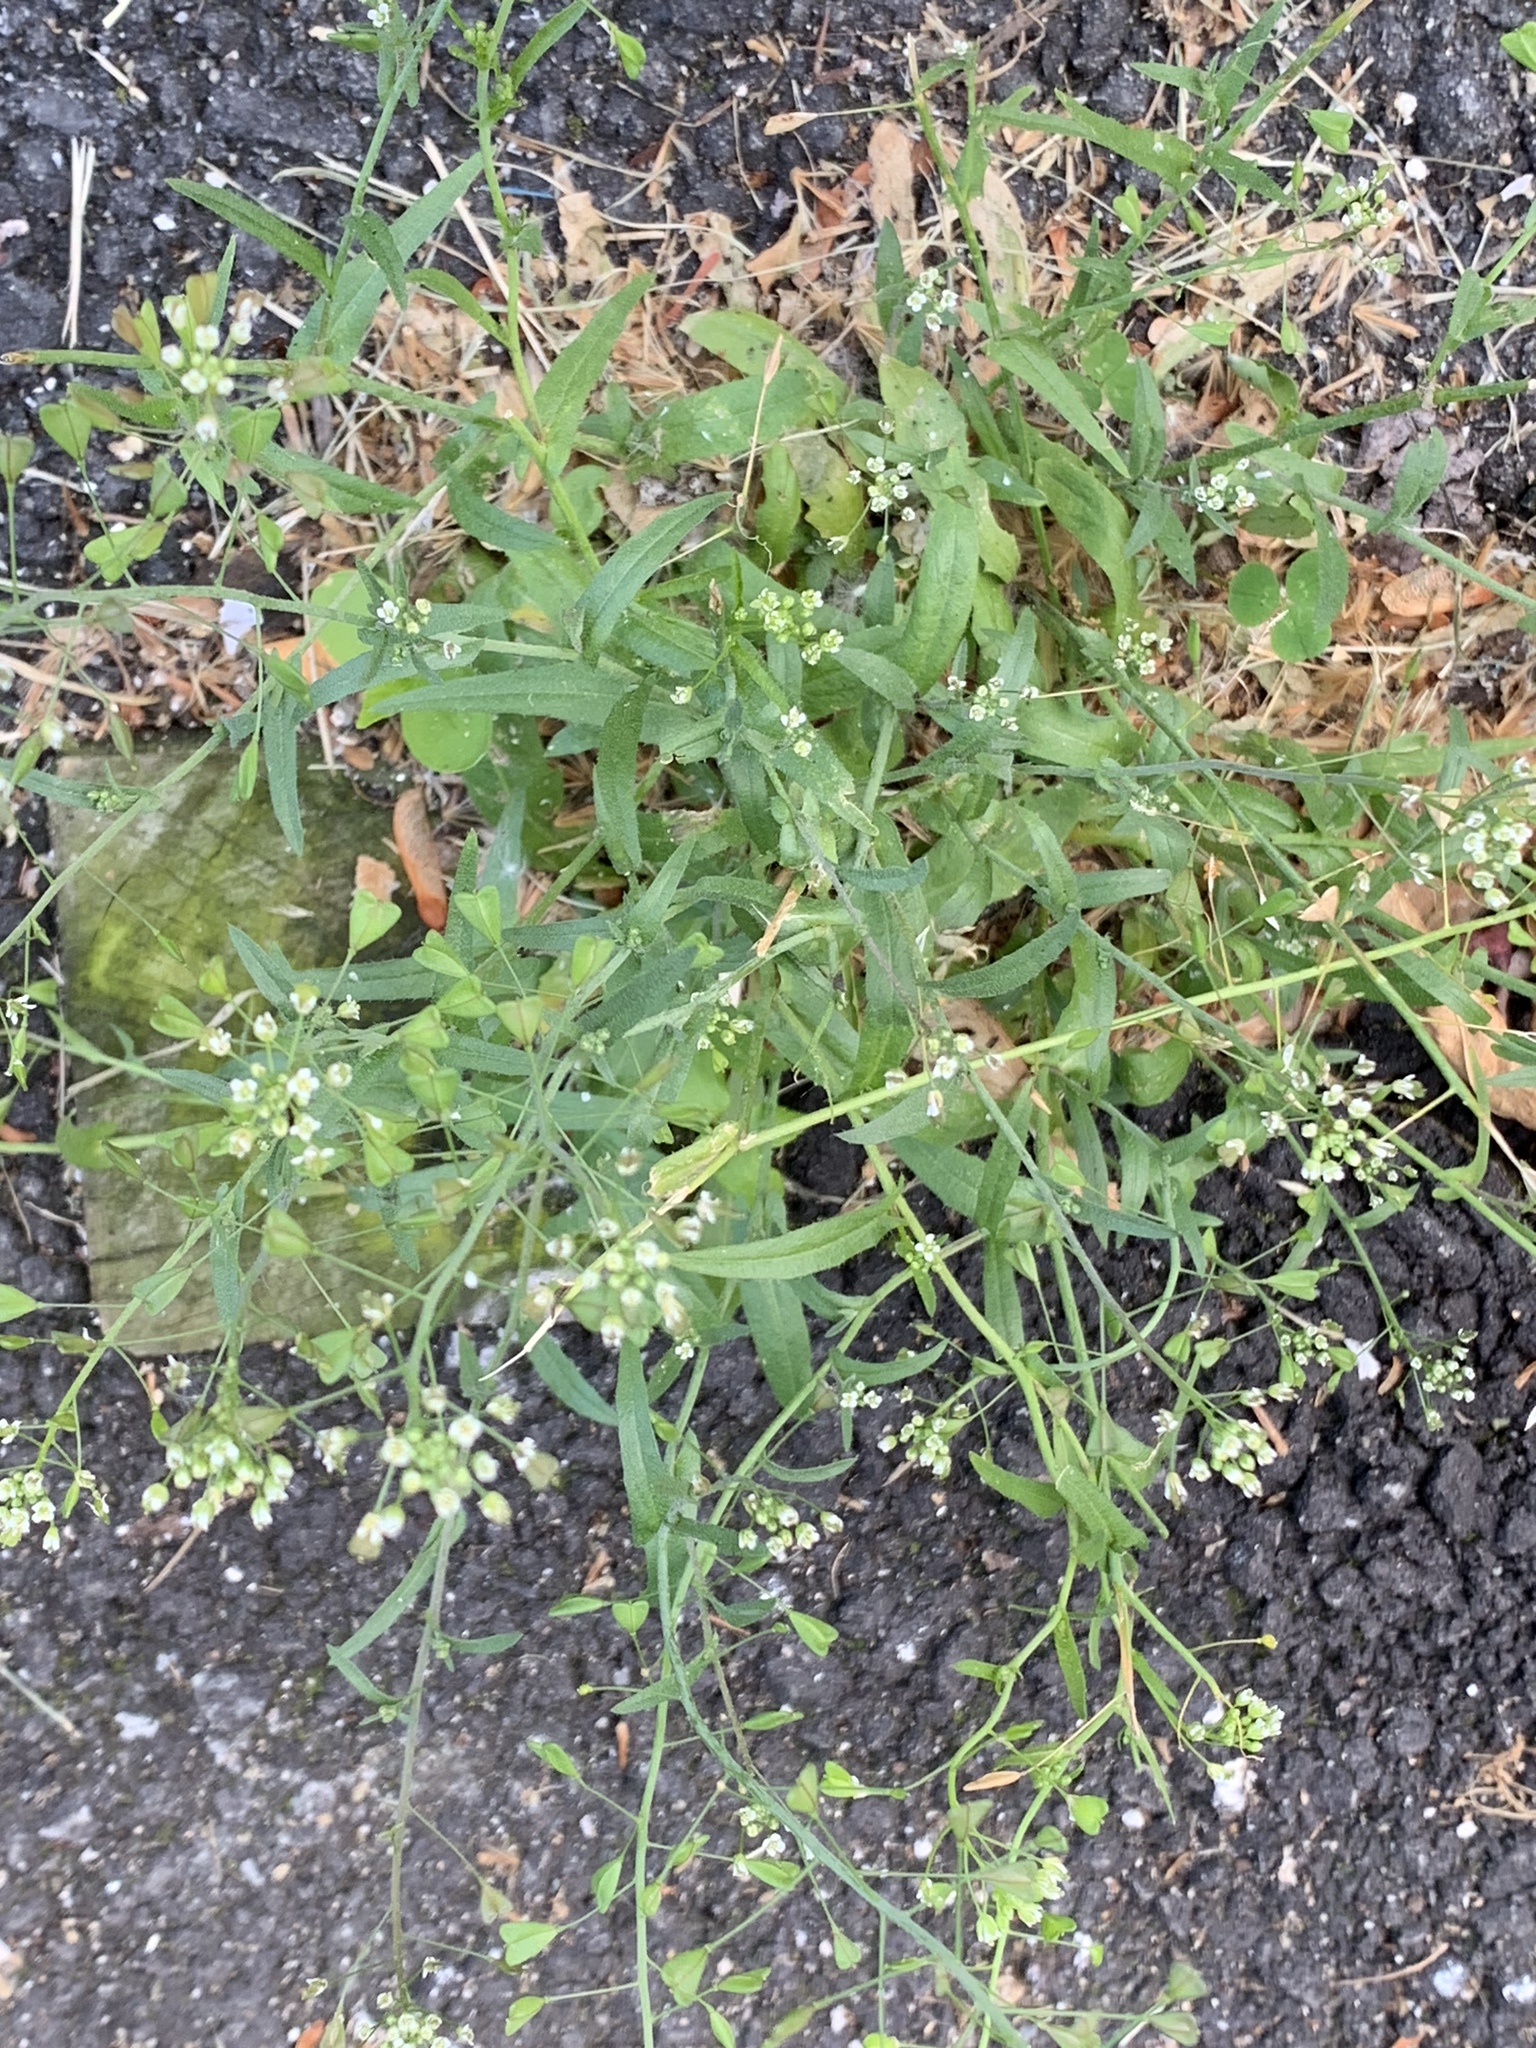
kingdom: Plantae
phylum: Tracheophyta
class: Magnoliopsida
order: Brassicales
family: Brassicaceae
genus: Capsella
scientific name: Capsella bursa-pastoris
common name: Shepherd's purse
